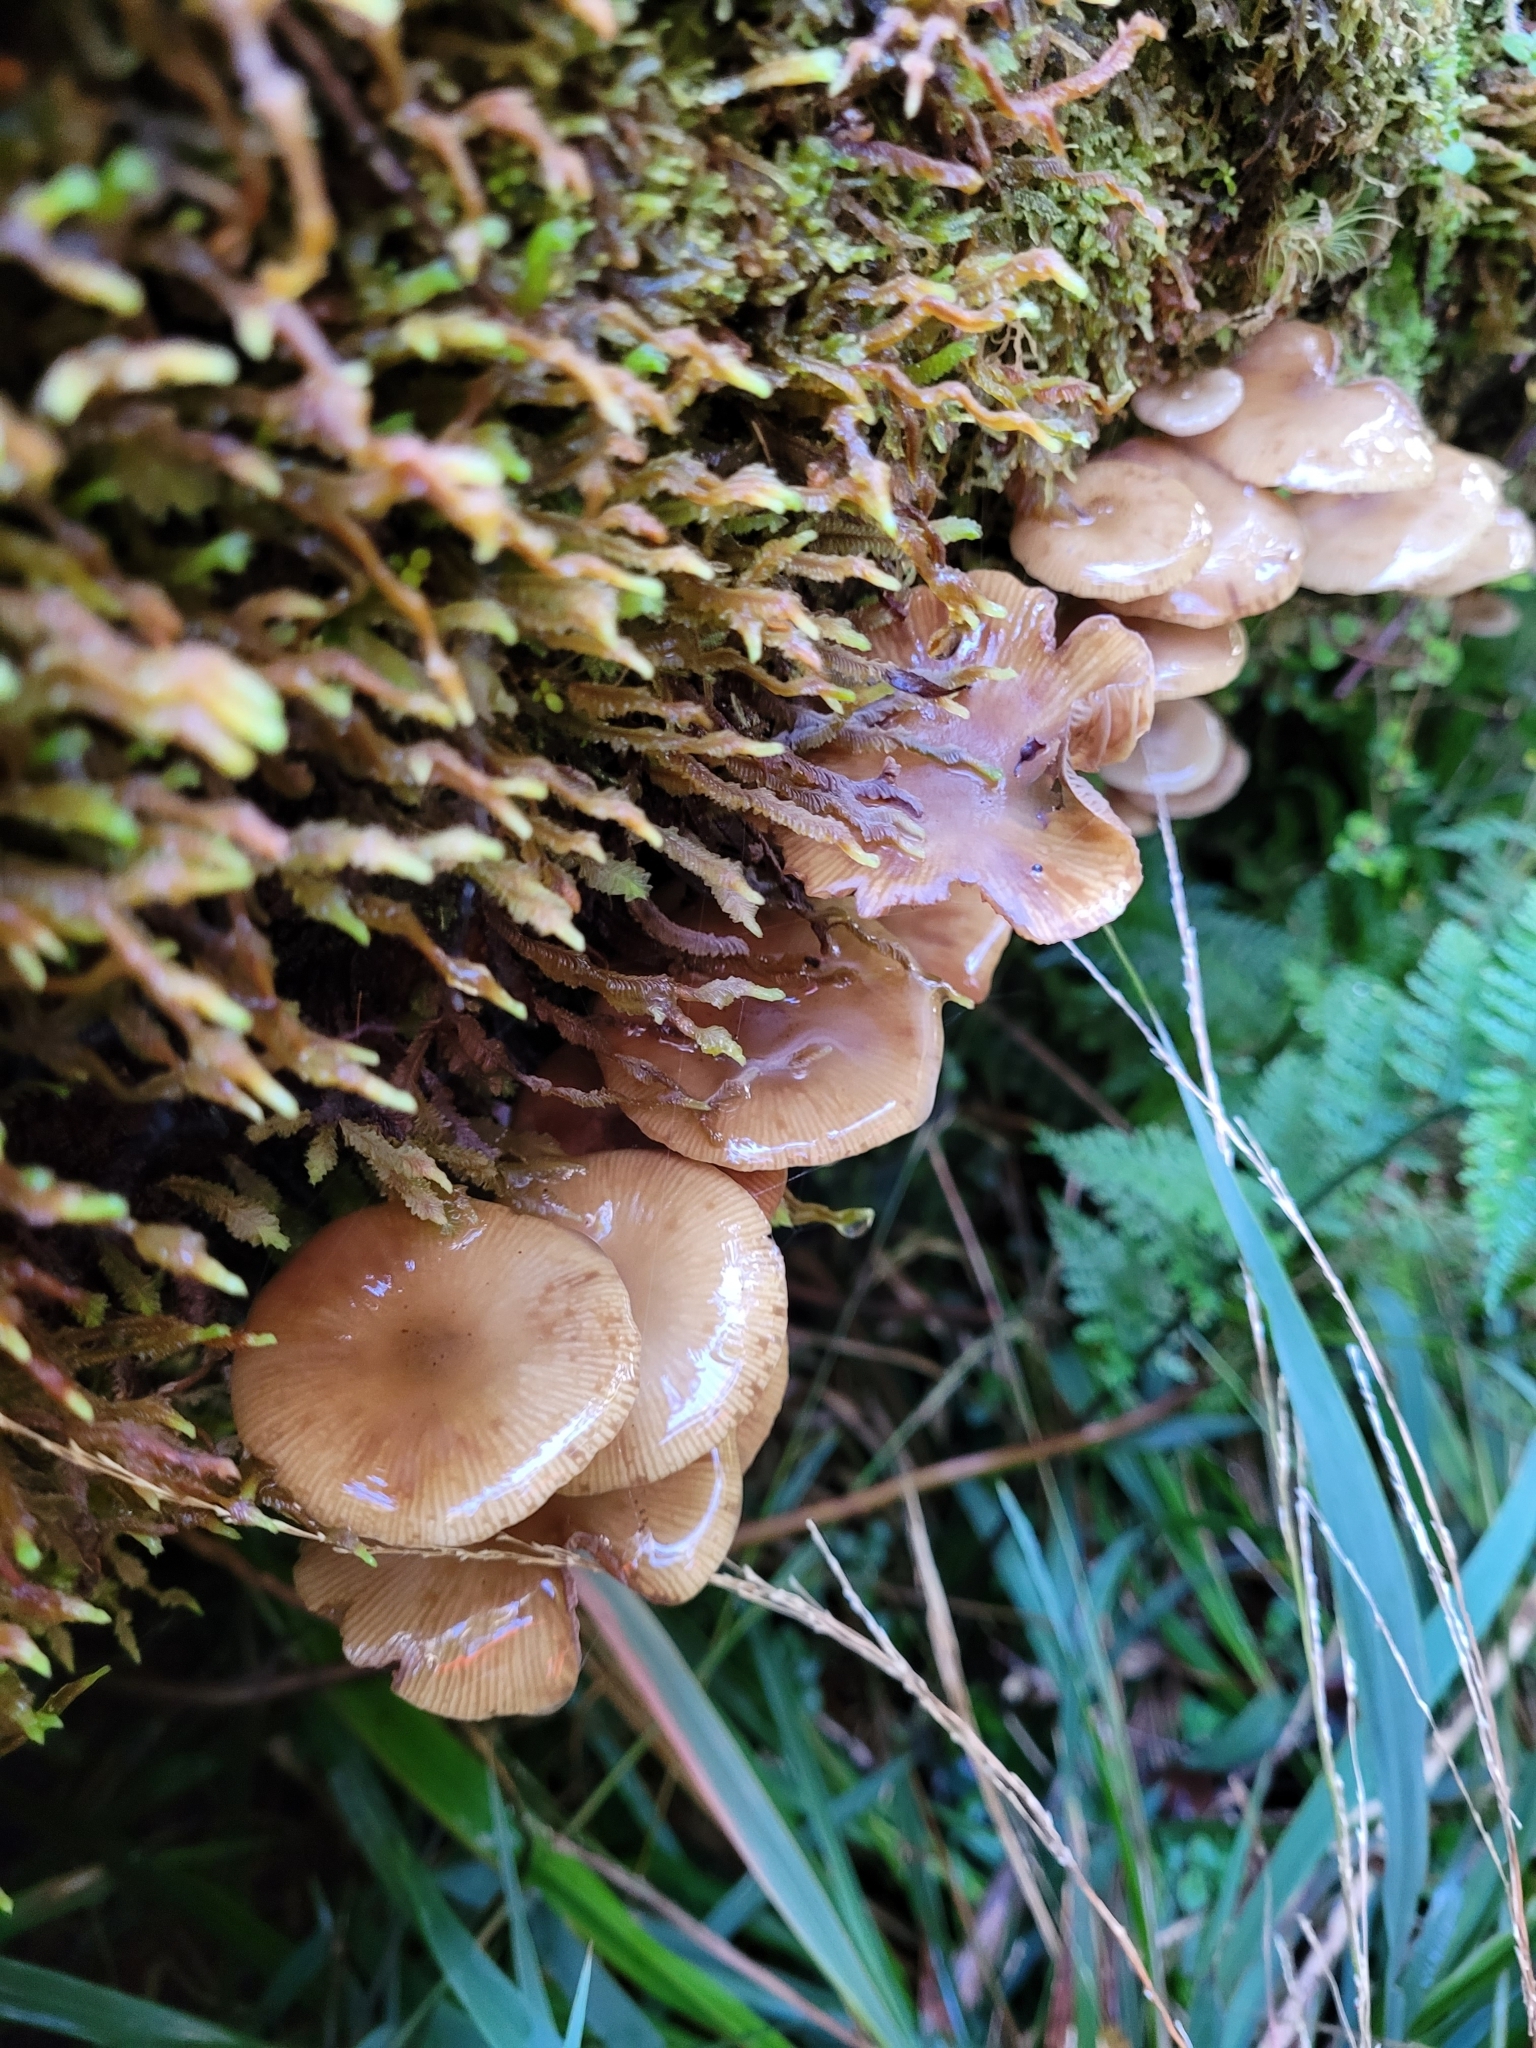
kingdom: Fungi
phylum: Basidiomycota
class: Agaricomycetes
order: Agaricales
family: Physalacriaceae
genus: Armillaria
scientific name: Armillaria novae-zelandiae
